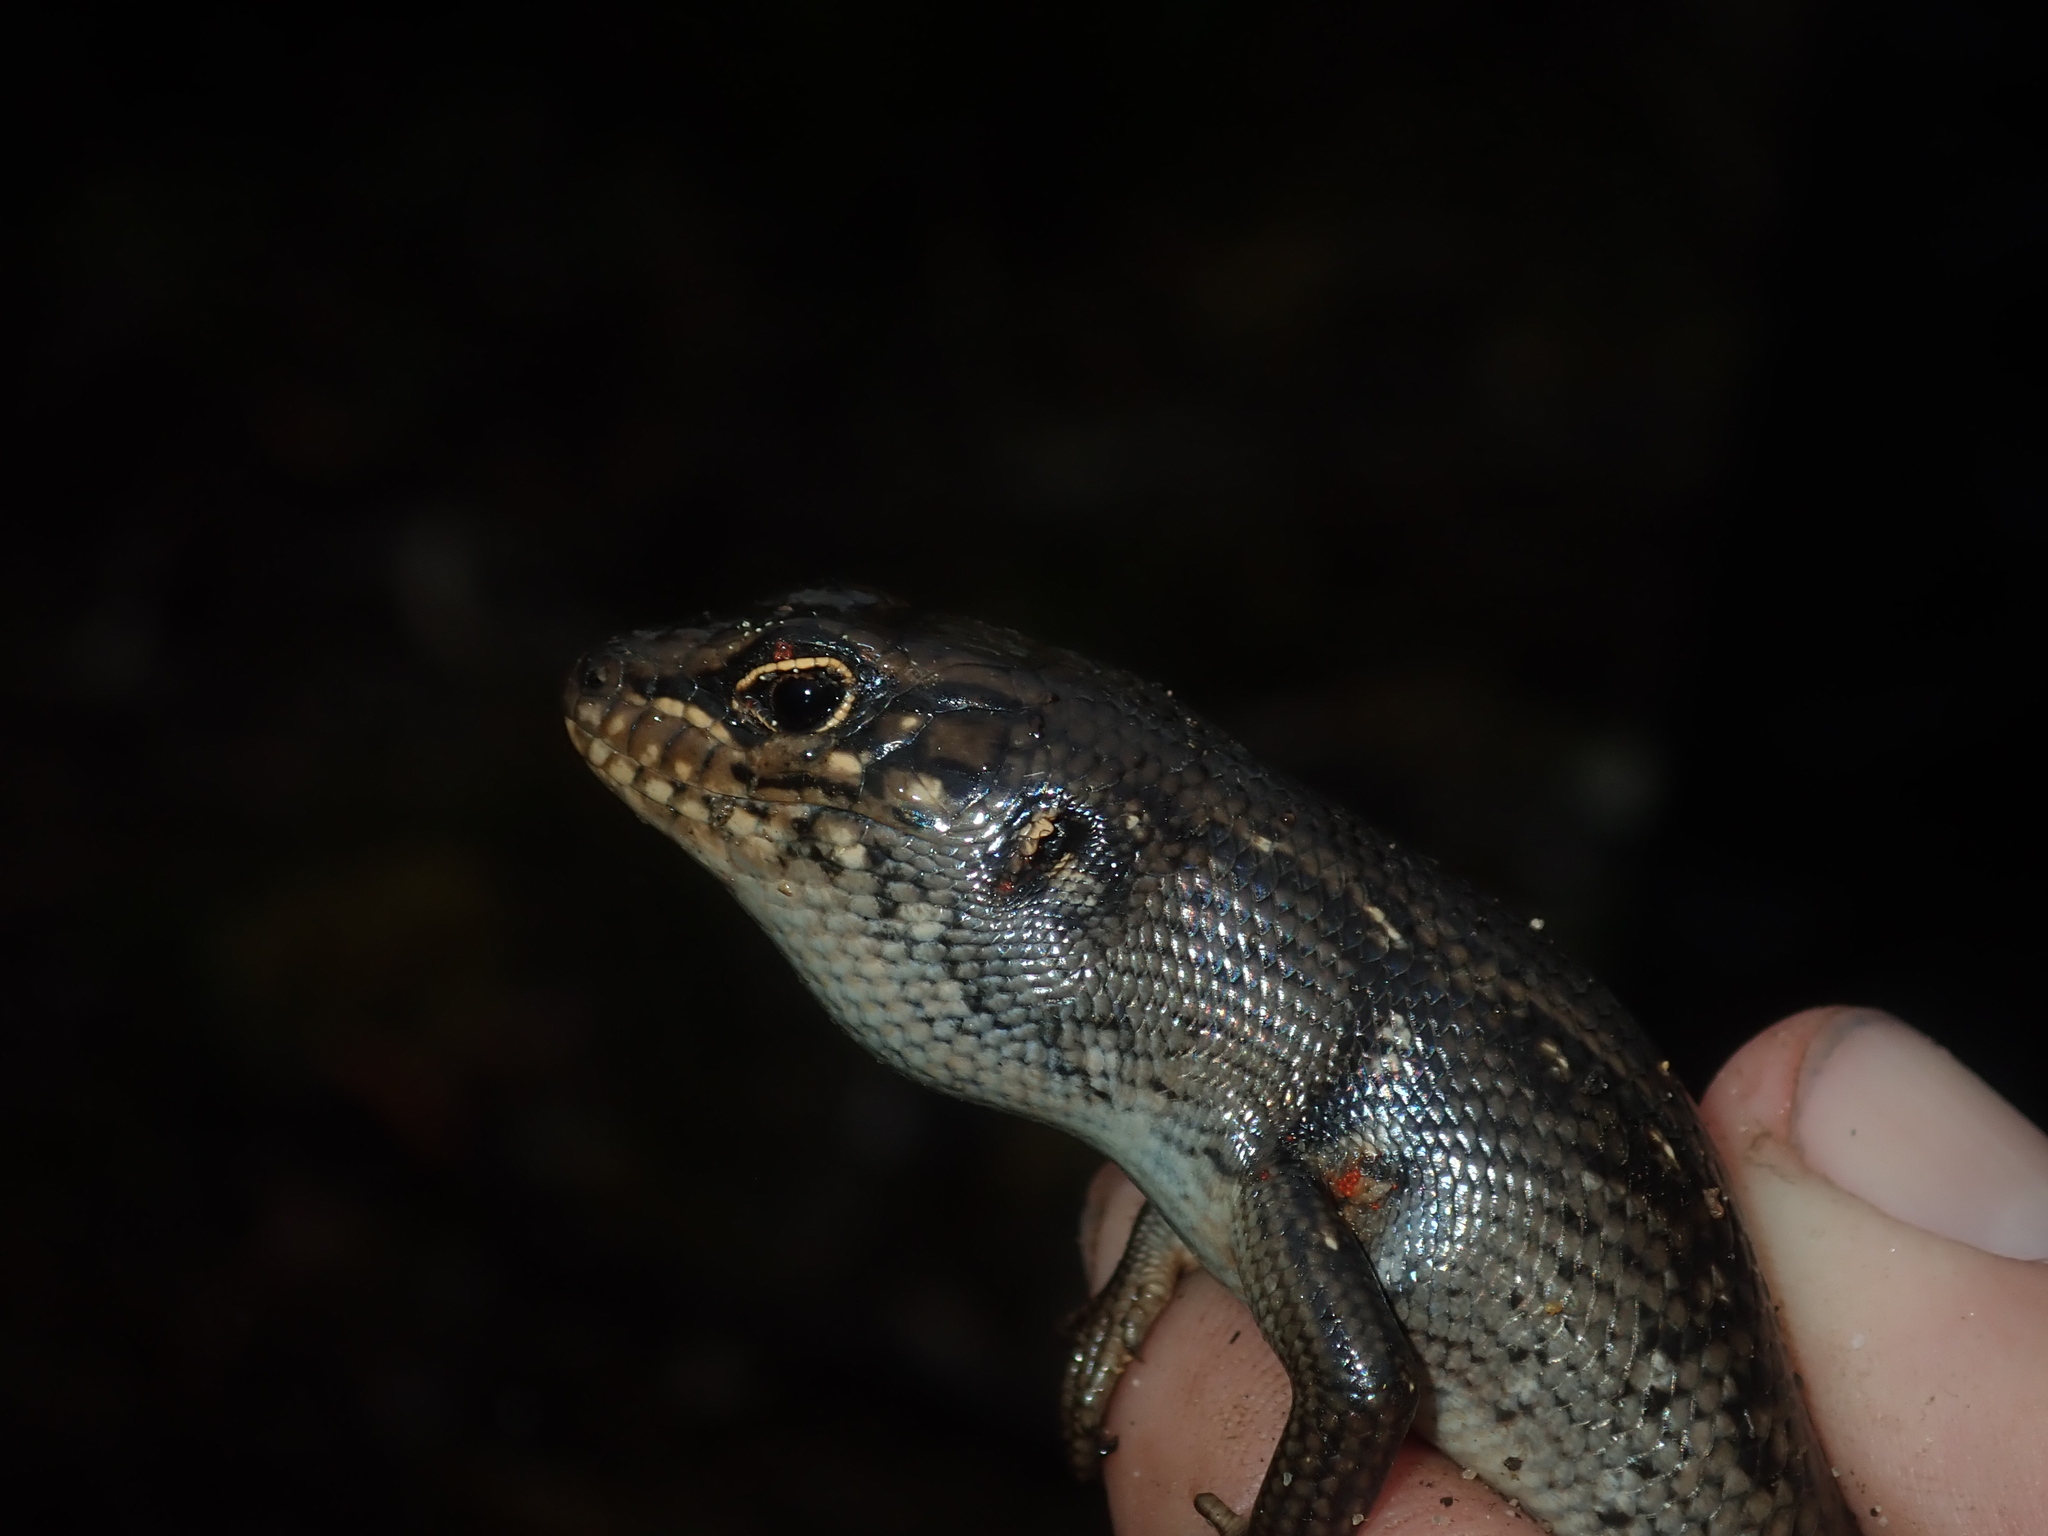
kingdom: Animalia
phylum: Chordata
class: Squamata
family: Scincidae
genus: Liopholis
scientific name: Liopholis whitii
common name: White's rock-skink
